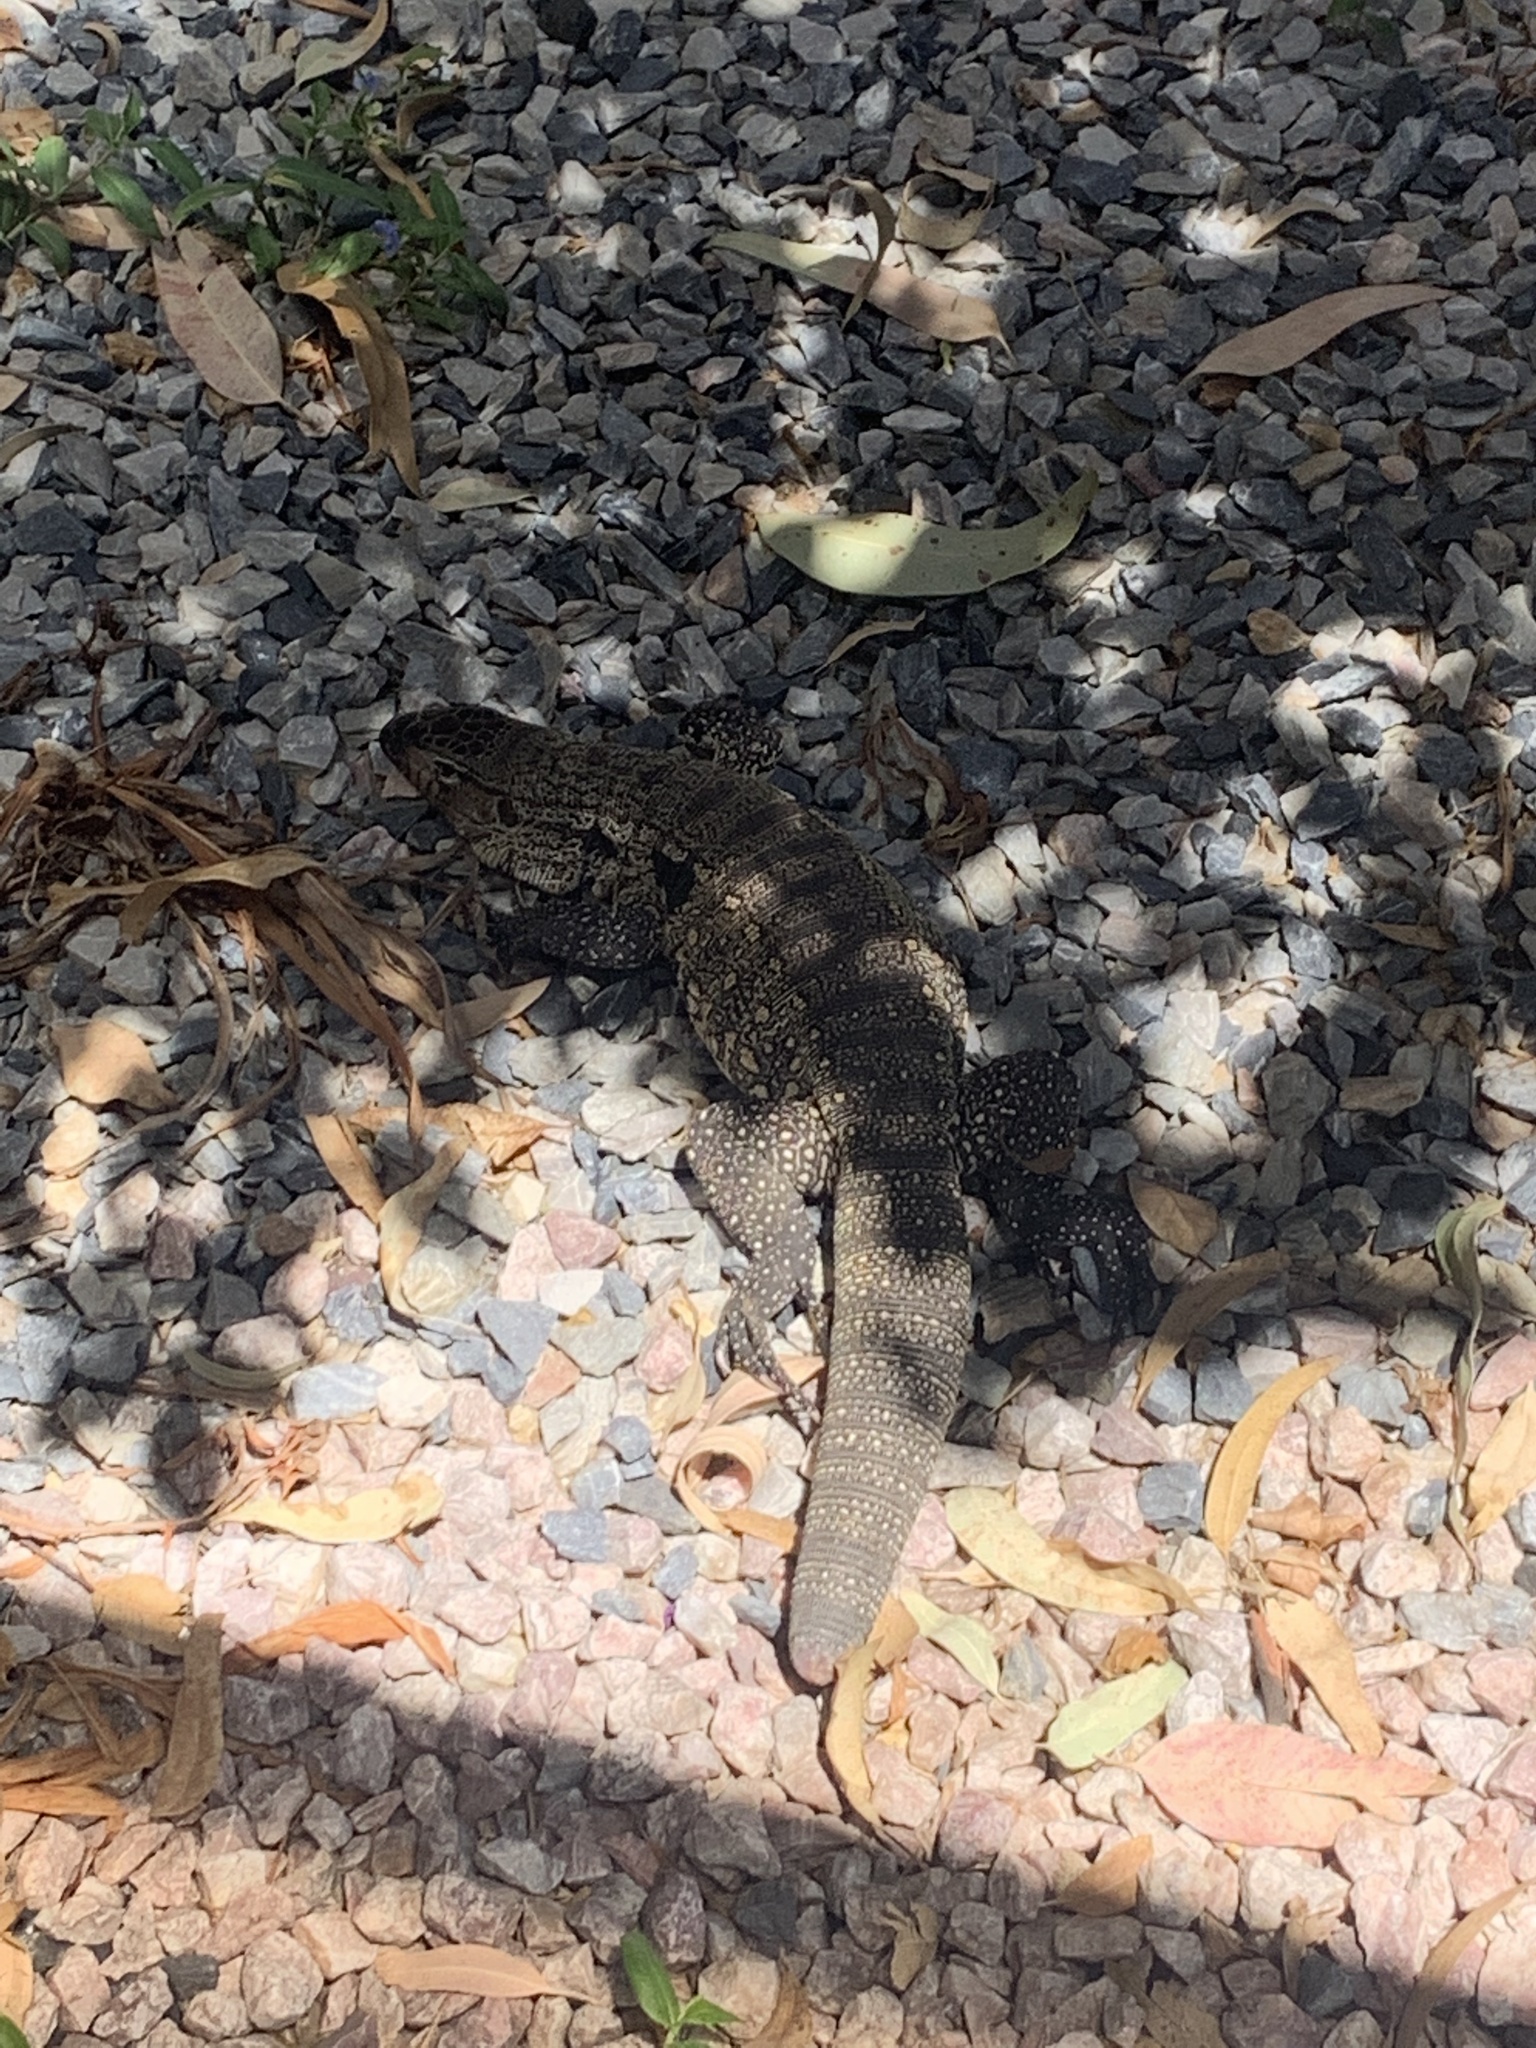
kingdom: Animalia
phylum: Chordata
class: Squamata
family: Teiidae
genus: Salvator
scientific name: Salvator merianae
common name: Argentine black and white tegu
